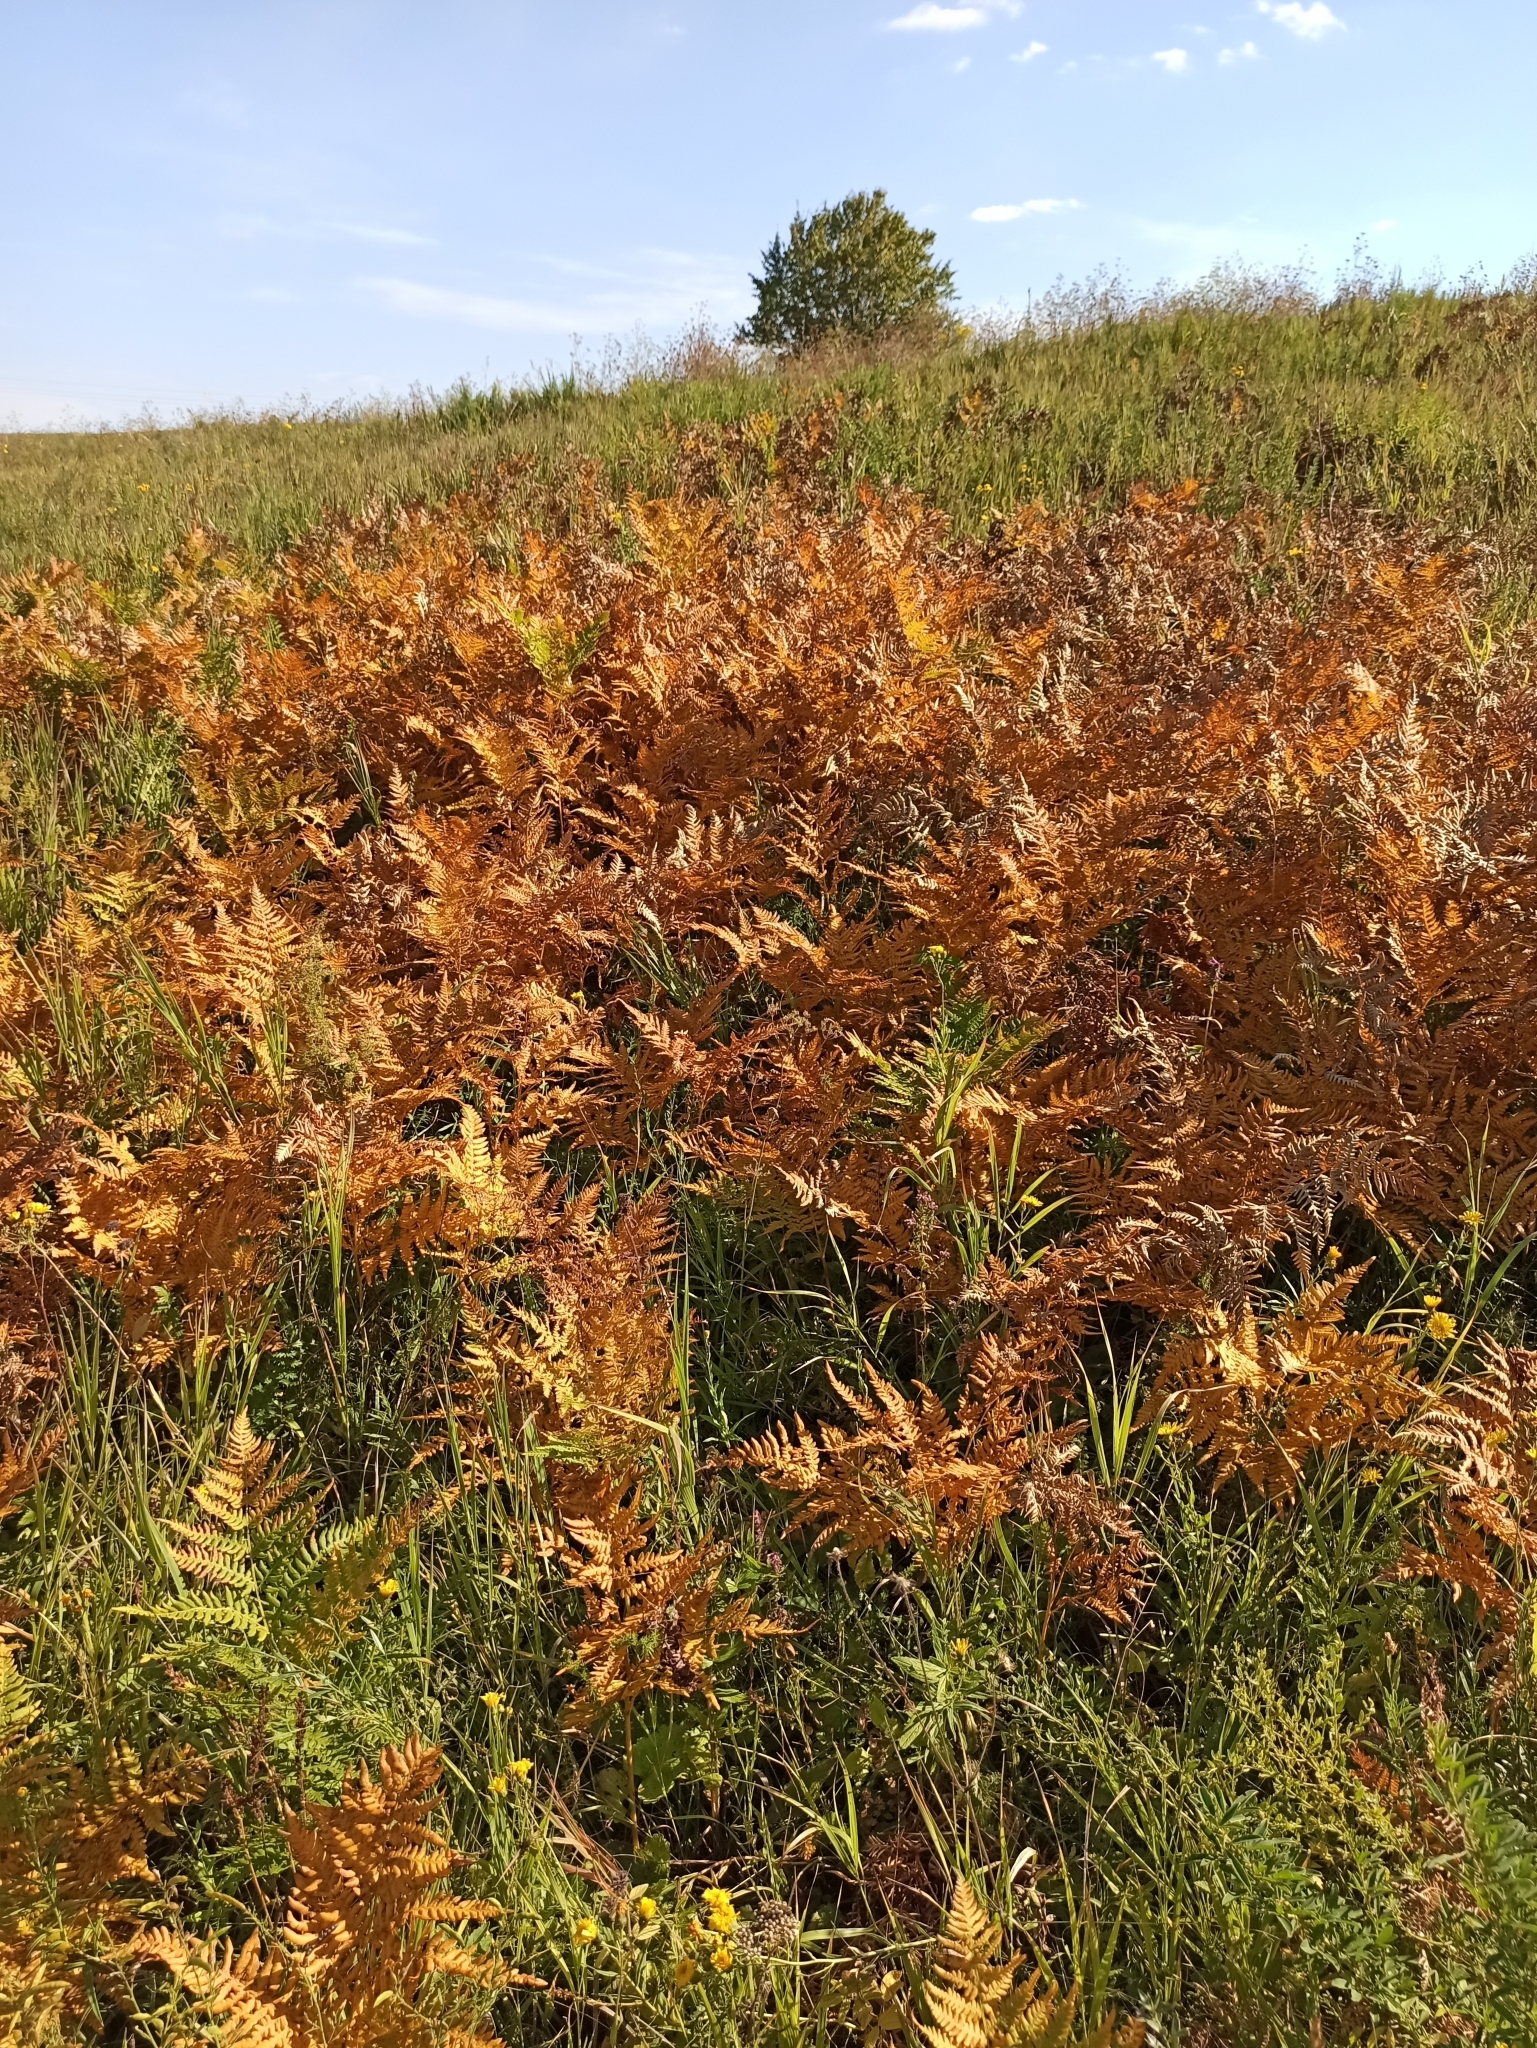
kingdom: Plantae
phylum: Tracheophyta
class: Polypodiopsida
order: Polypodiales
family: Dennstaedtiaceae
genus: Pteridium
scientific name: Pteridium aquilinum
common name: Bracken
